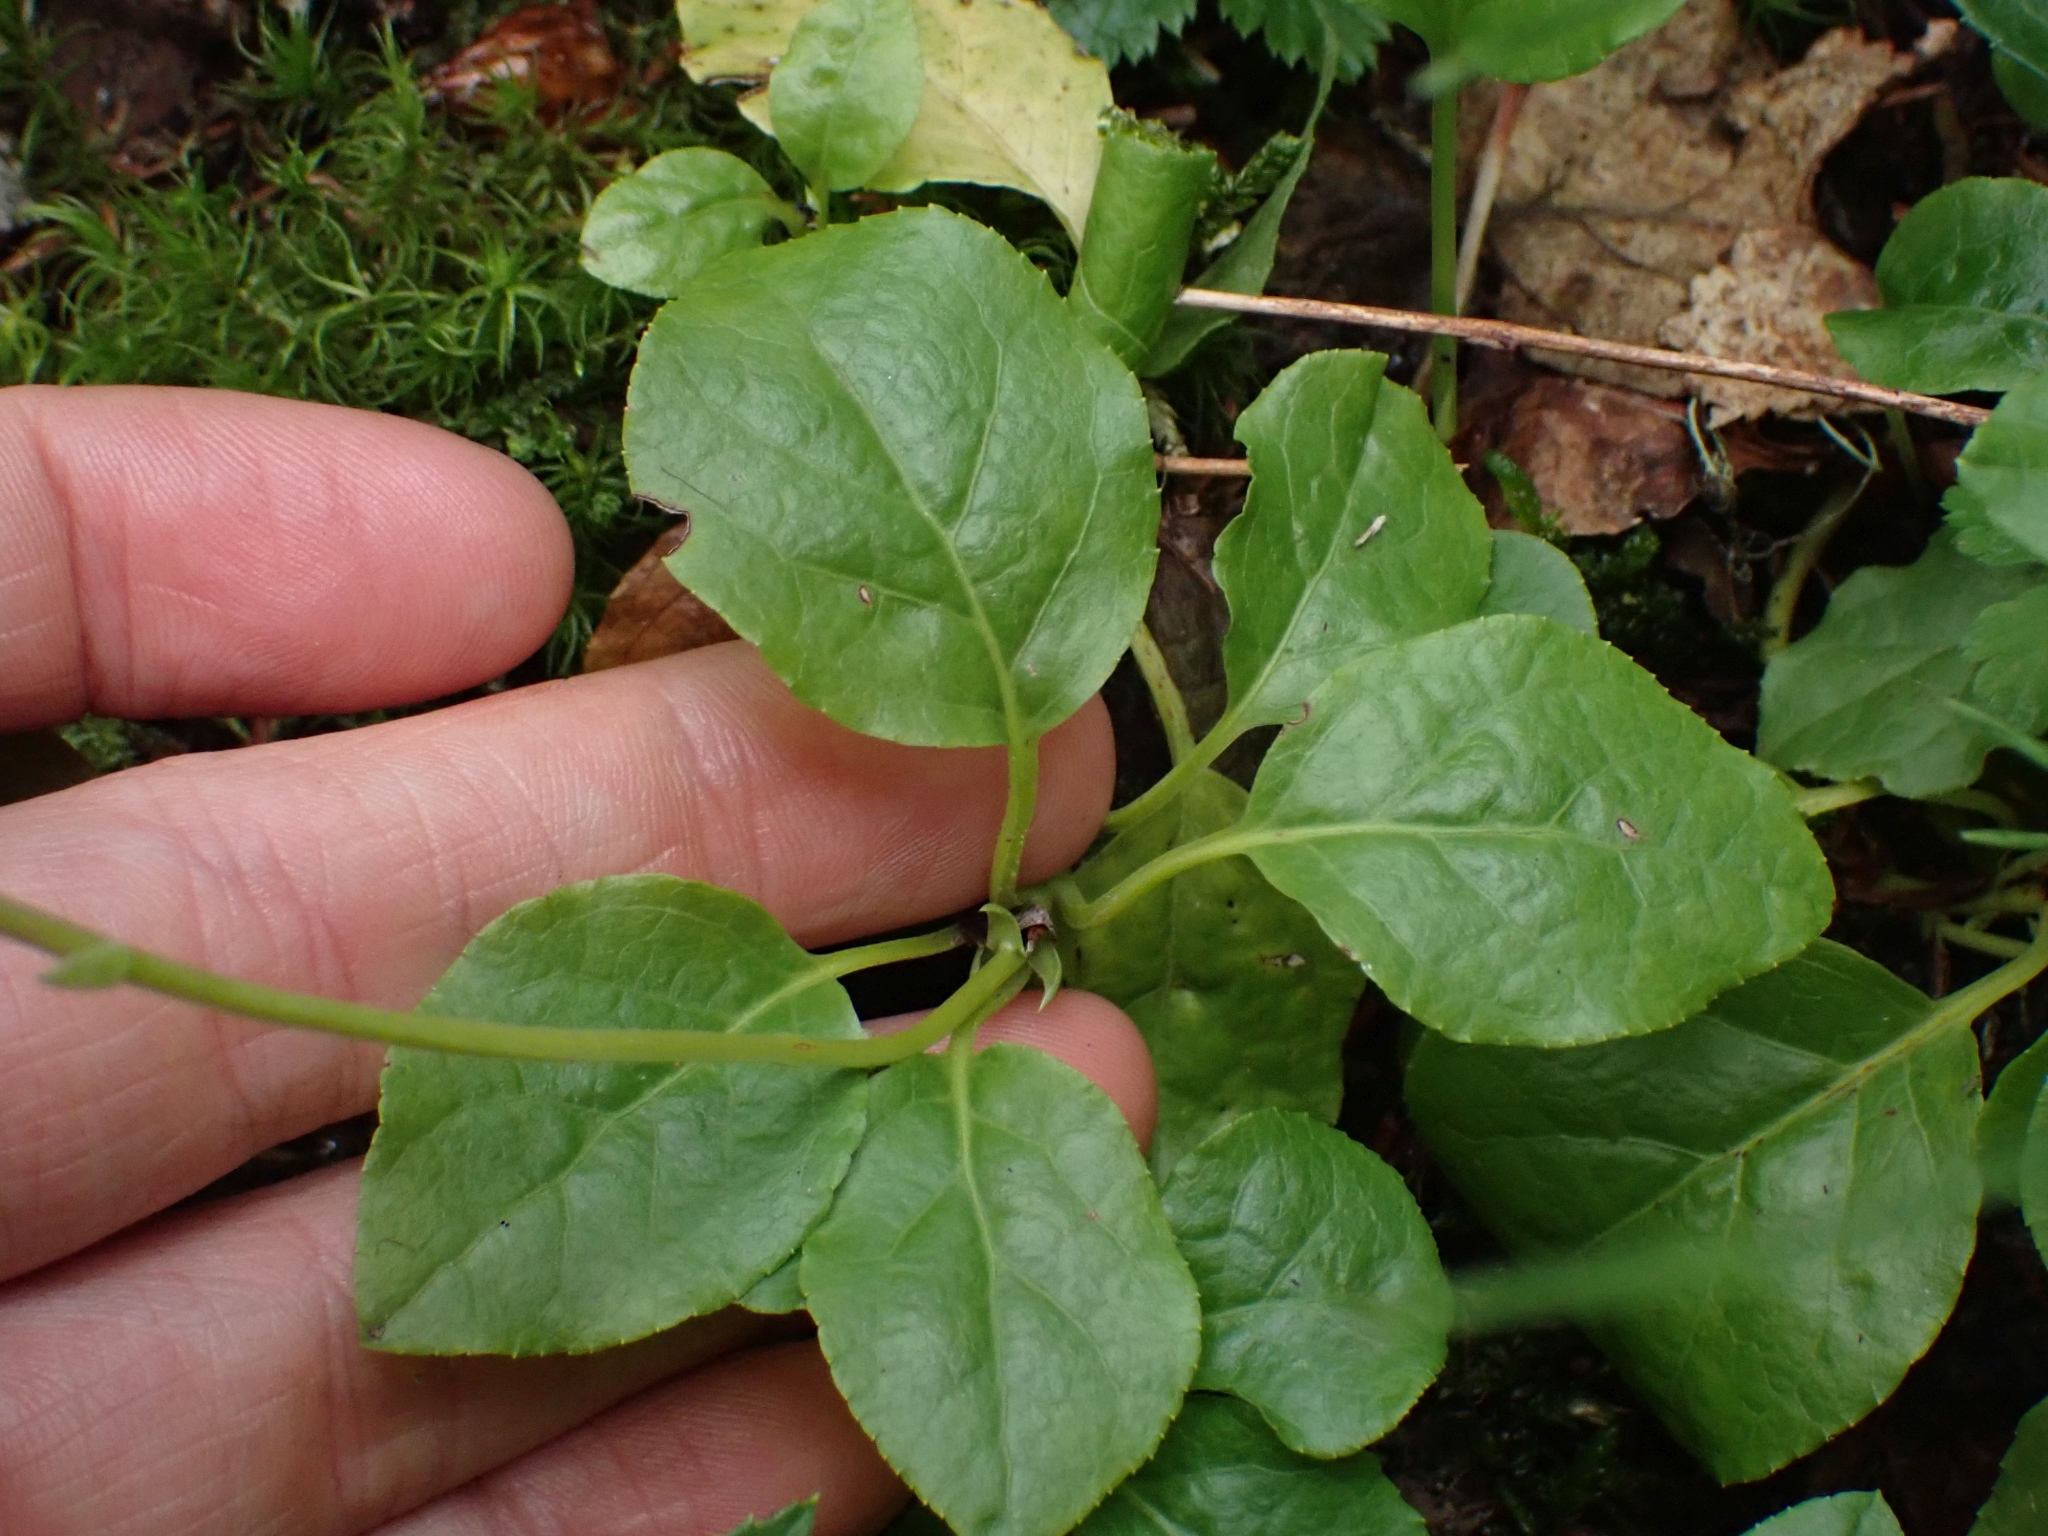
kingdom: Plantae
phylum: Tracheophyta
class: Magnoliopsida
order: Ericales
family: Ericaceae
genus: Orthilia
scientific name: Orthilia secunda
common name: One-sided orthilia
